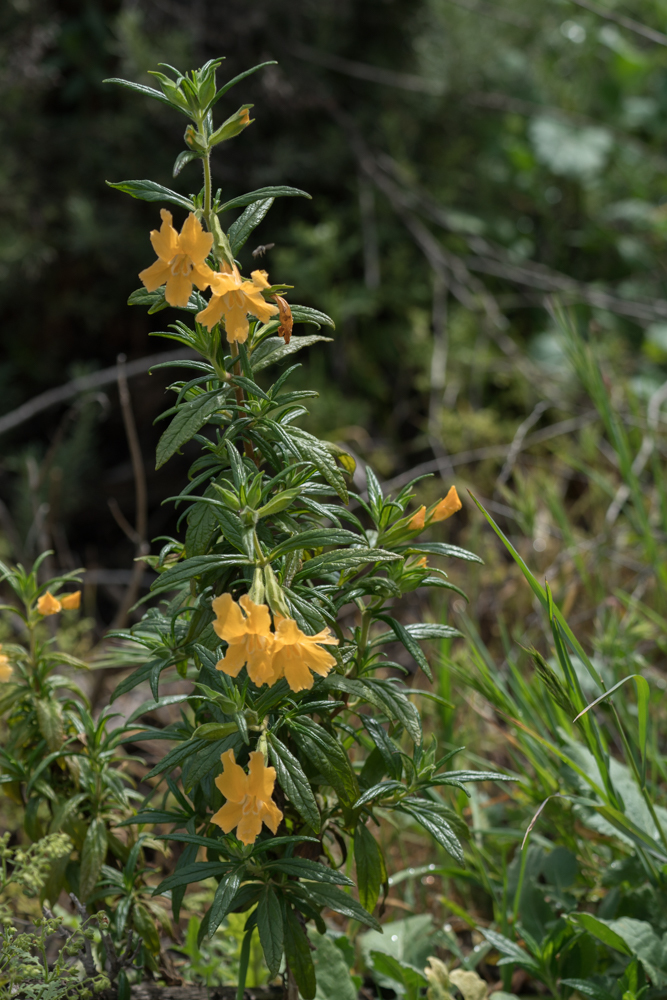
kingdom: Plantae
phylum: Tracheophyta
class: Magnoliopsida
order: Lamiales
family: Phrymaceae
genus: Diplacus
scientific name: Diplacus longiflorus
